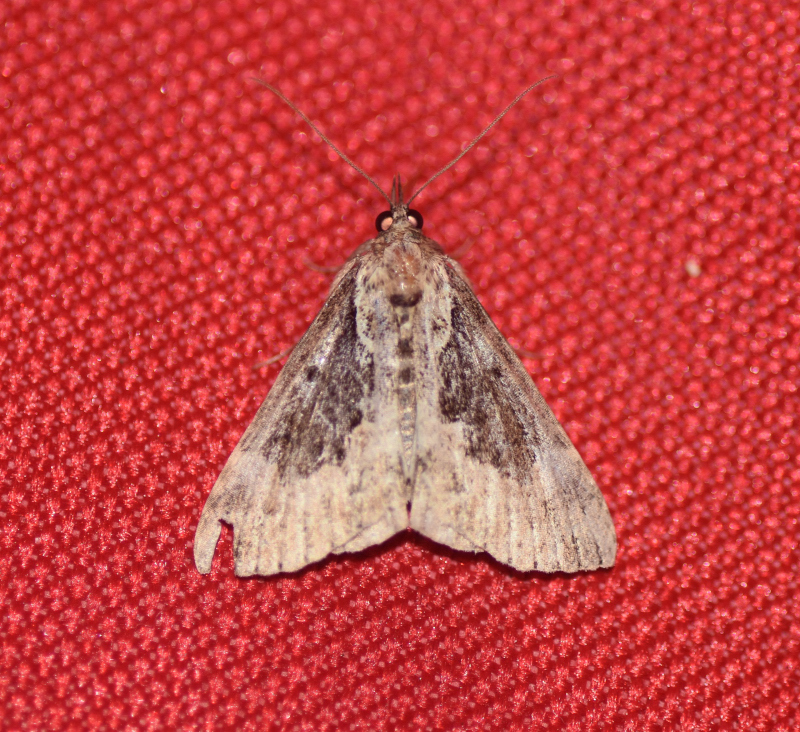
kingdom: Animalia
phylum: Arthropoda
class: Insecta
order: Lepidoptera
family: Erebidae
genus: Hypena
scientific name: Hypena baltimoralis
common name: Baltimore snout
